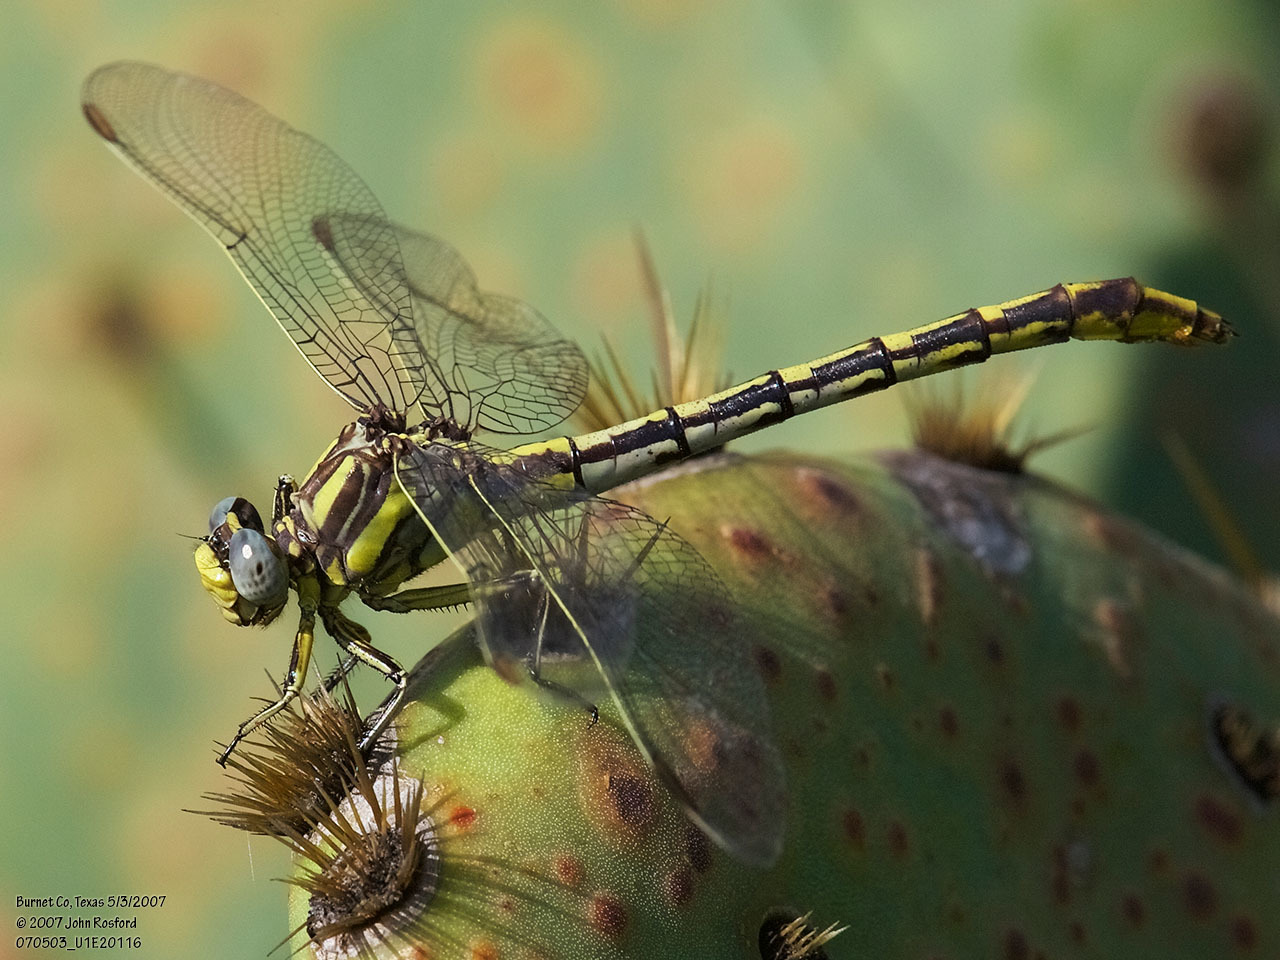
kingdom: Animalia
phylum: Arthropoda
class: Insecta
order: Odonata
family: Gomphidae
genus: Phanogomphus
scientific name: Phanogomphus militaris
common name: Sulphur-tipped clubtail
